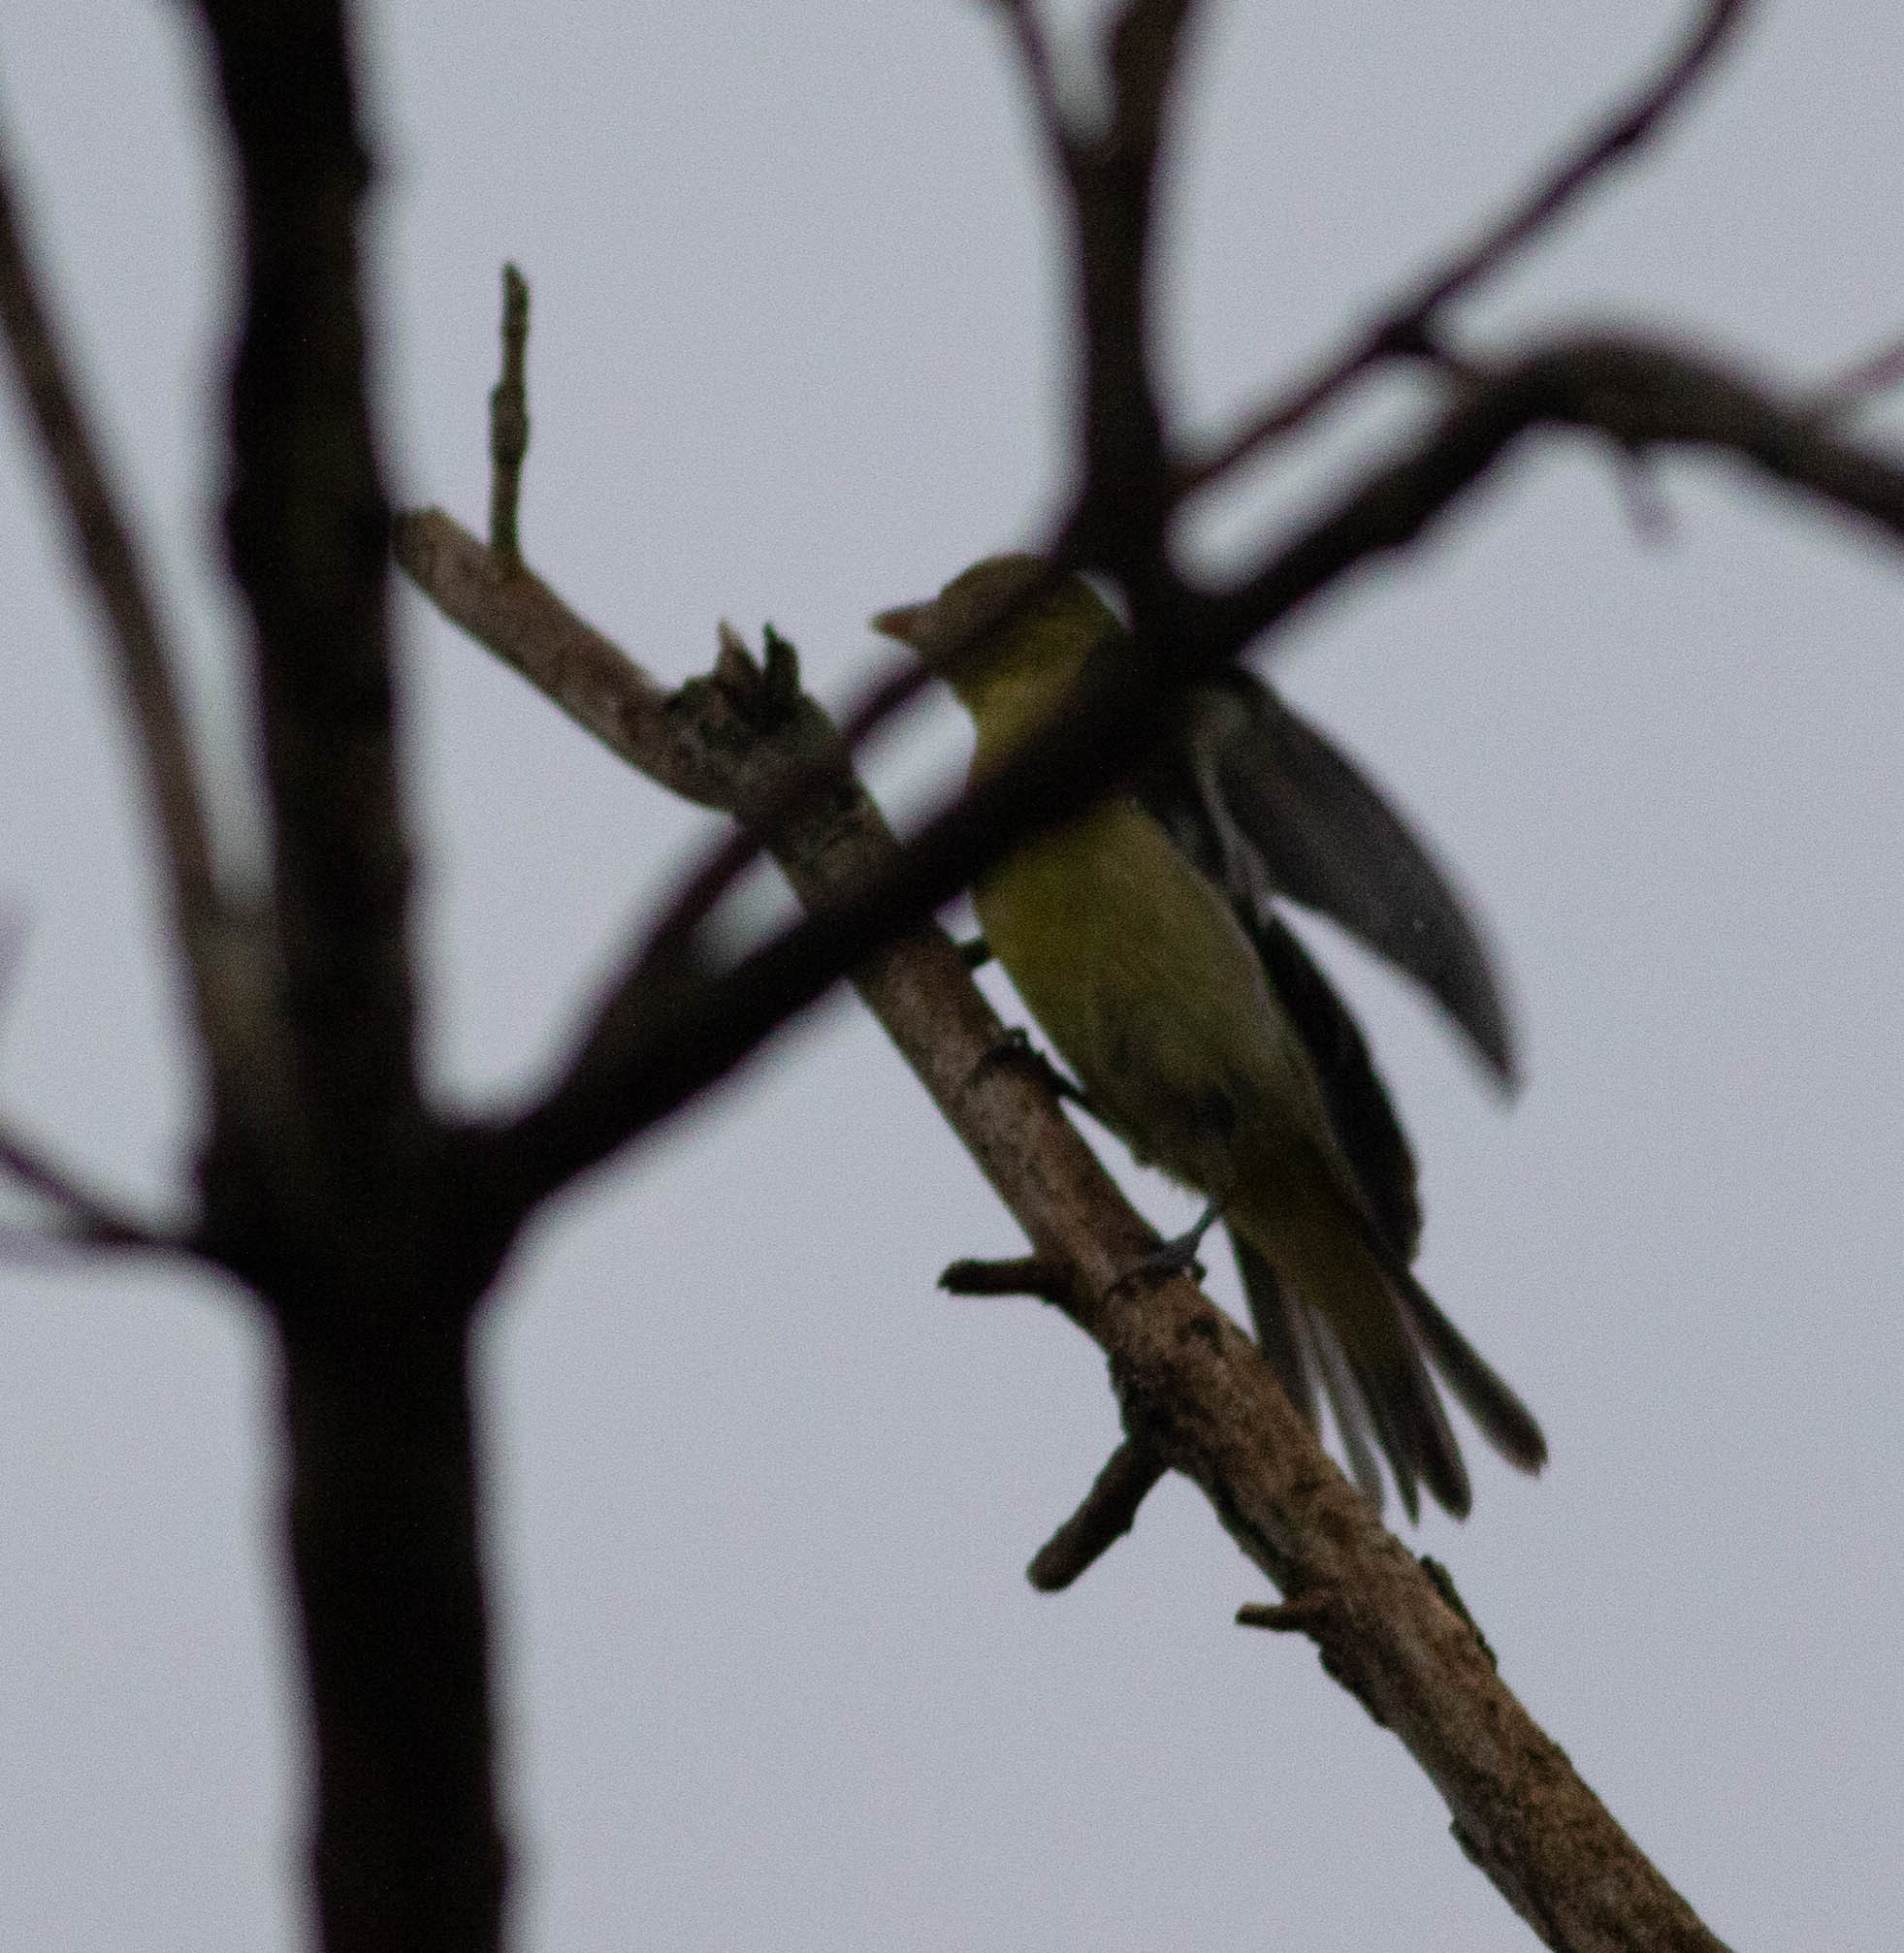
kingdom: Animalia
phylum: Chordata
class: Aves
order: Passeriformes
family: Cardinalidae
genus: Piranga
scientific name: Piranga olivacea
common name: Scarlet tanager
